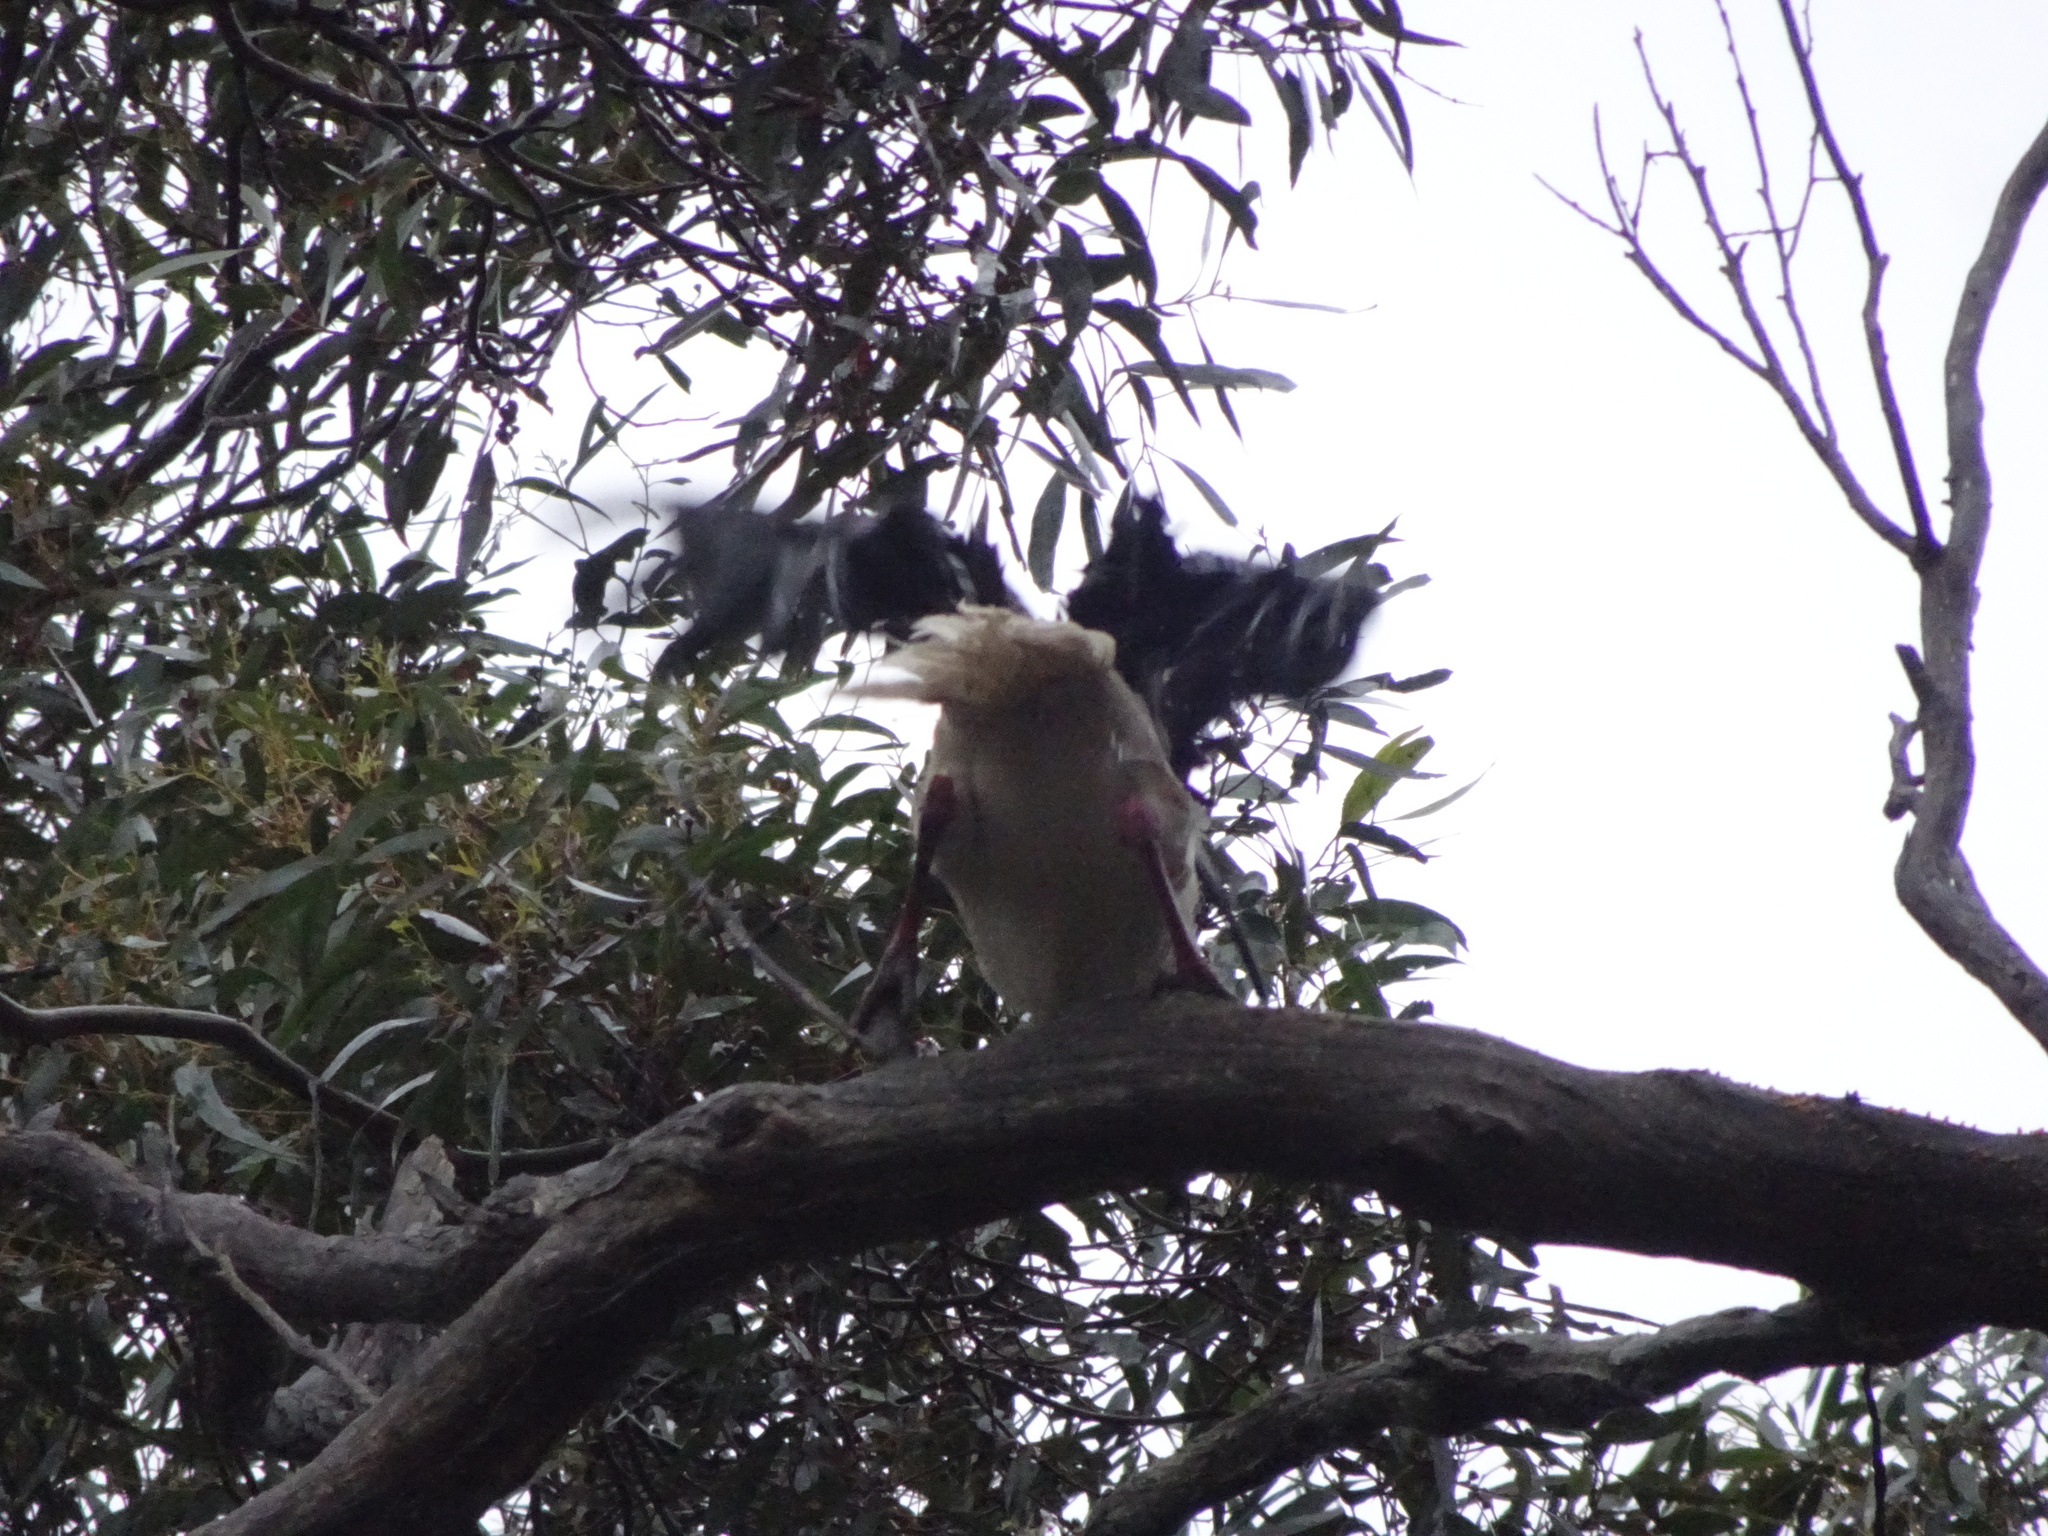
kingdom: Animalia
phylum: Chordata
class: Aves
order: Pelecaniformes
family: Threskiornithidae
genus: Threskiornis
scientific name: Threskiornis spinicollis
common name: Straw-necked ibis
